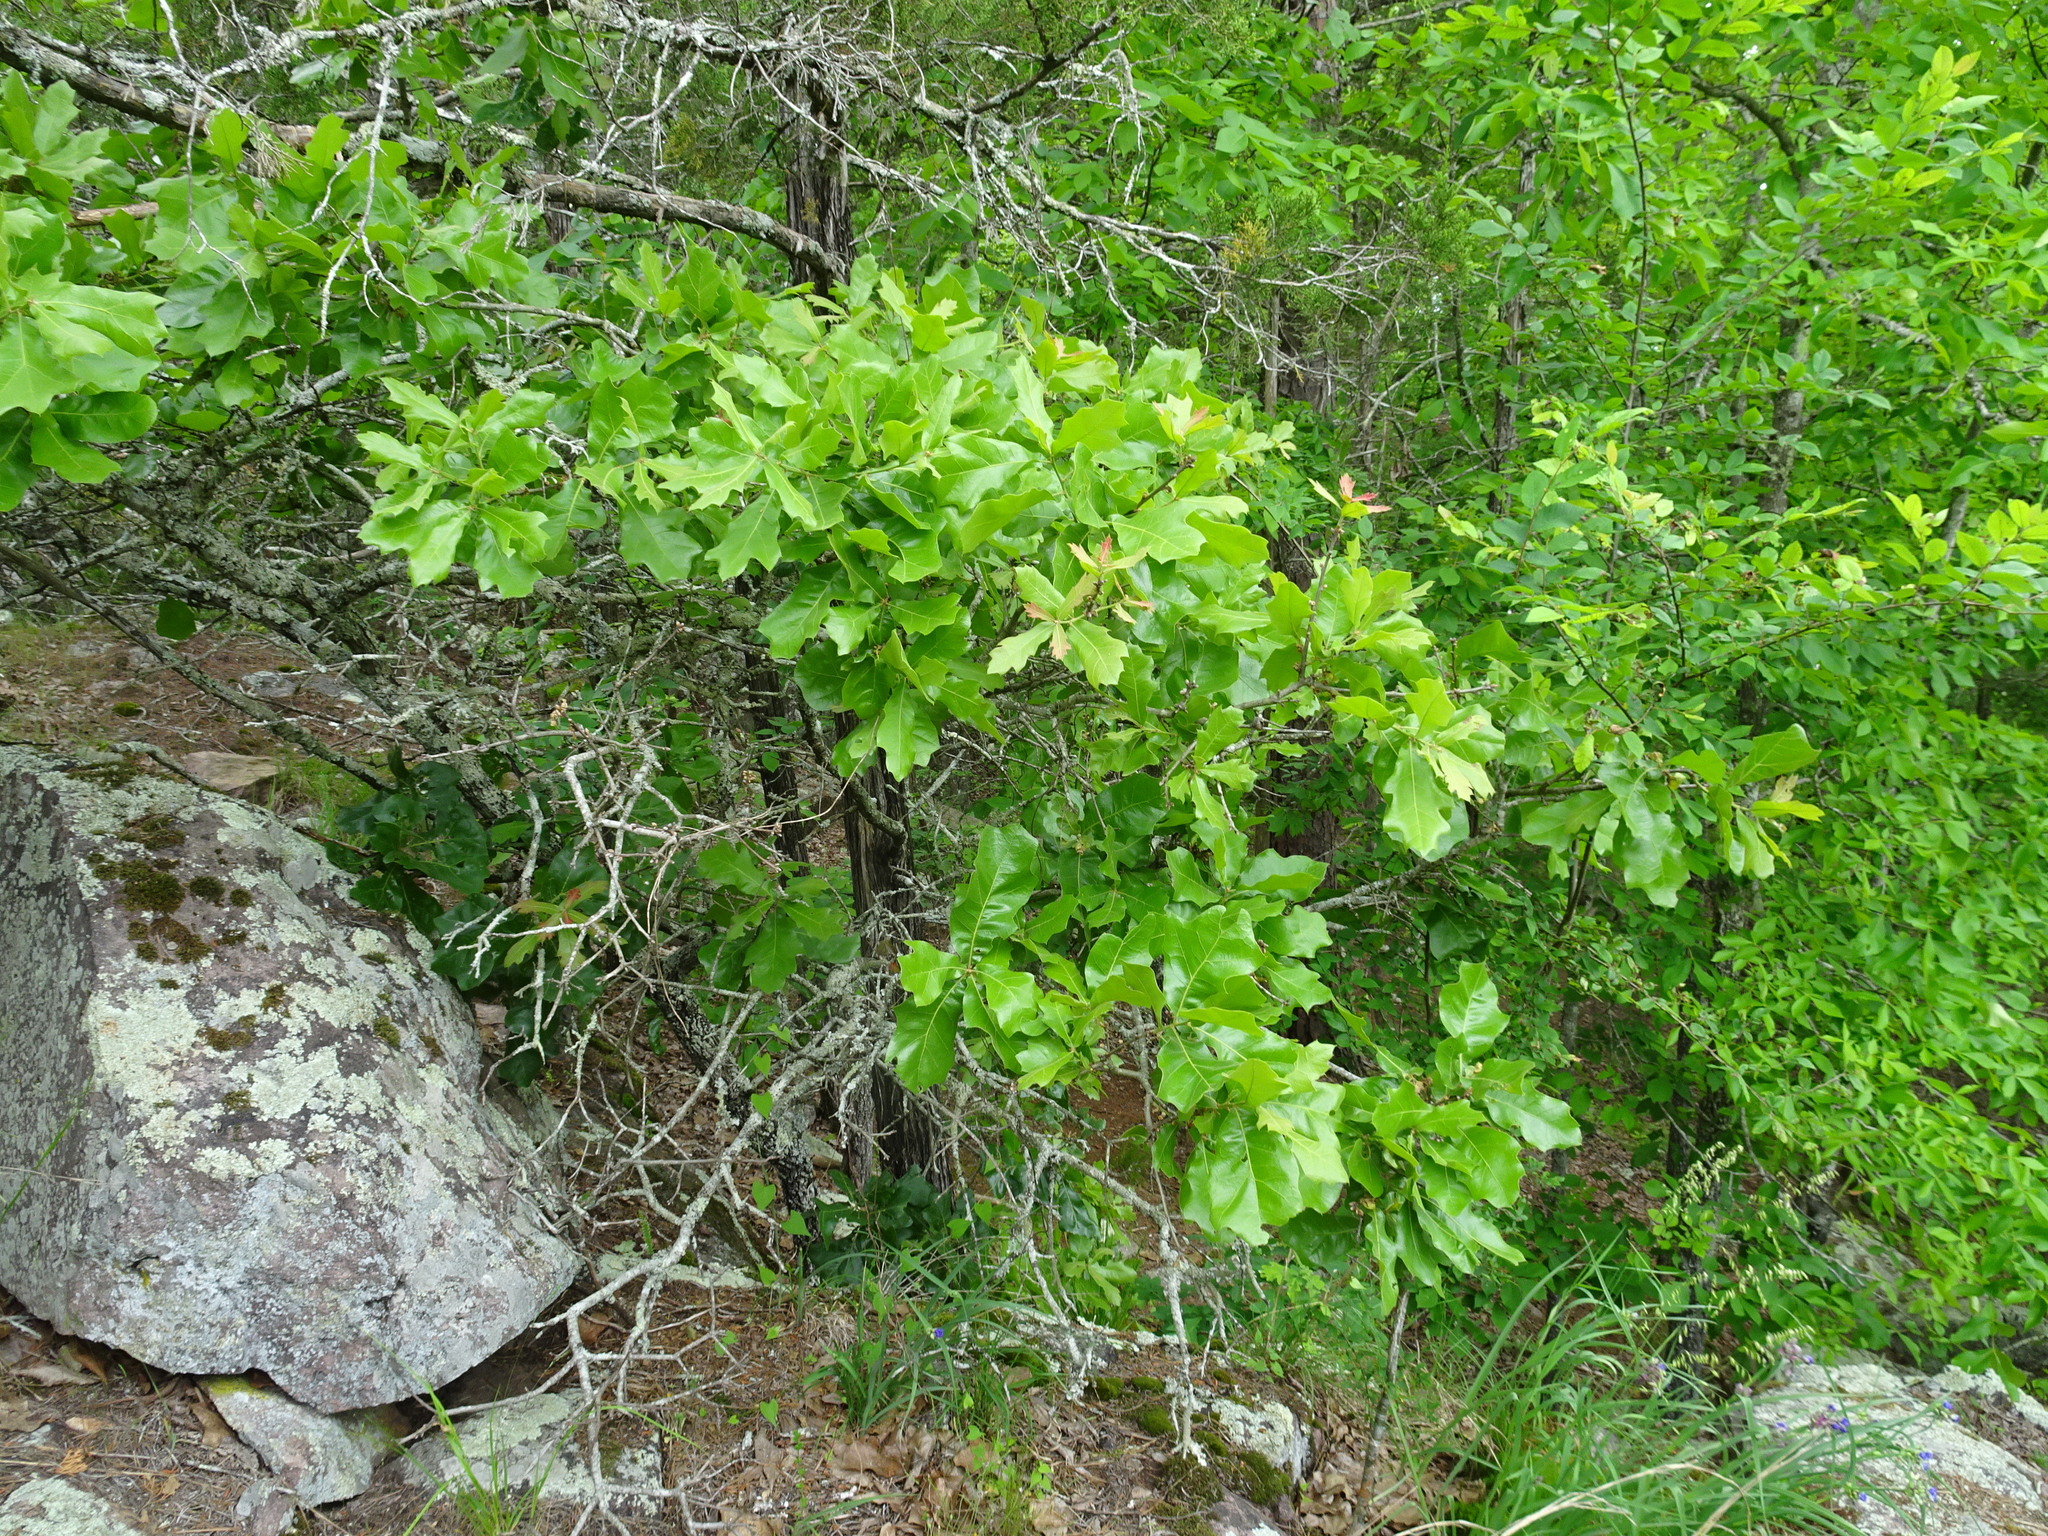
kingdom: Plantae
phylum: Tracheophyta
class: Magnoliopsida
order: Fagales
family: Fagaceae
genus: Quercus
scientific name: Quercus marilandica
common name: Blackjack oak
